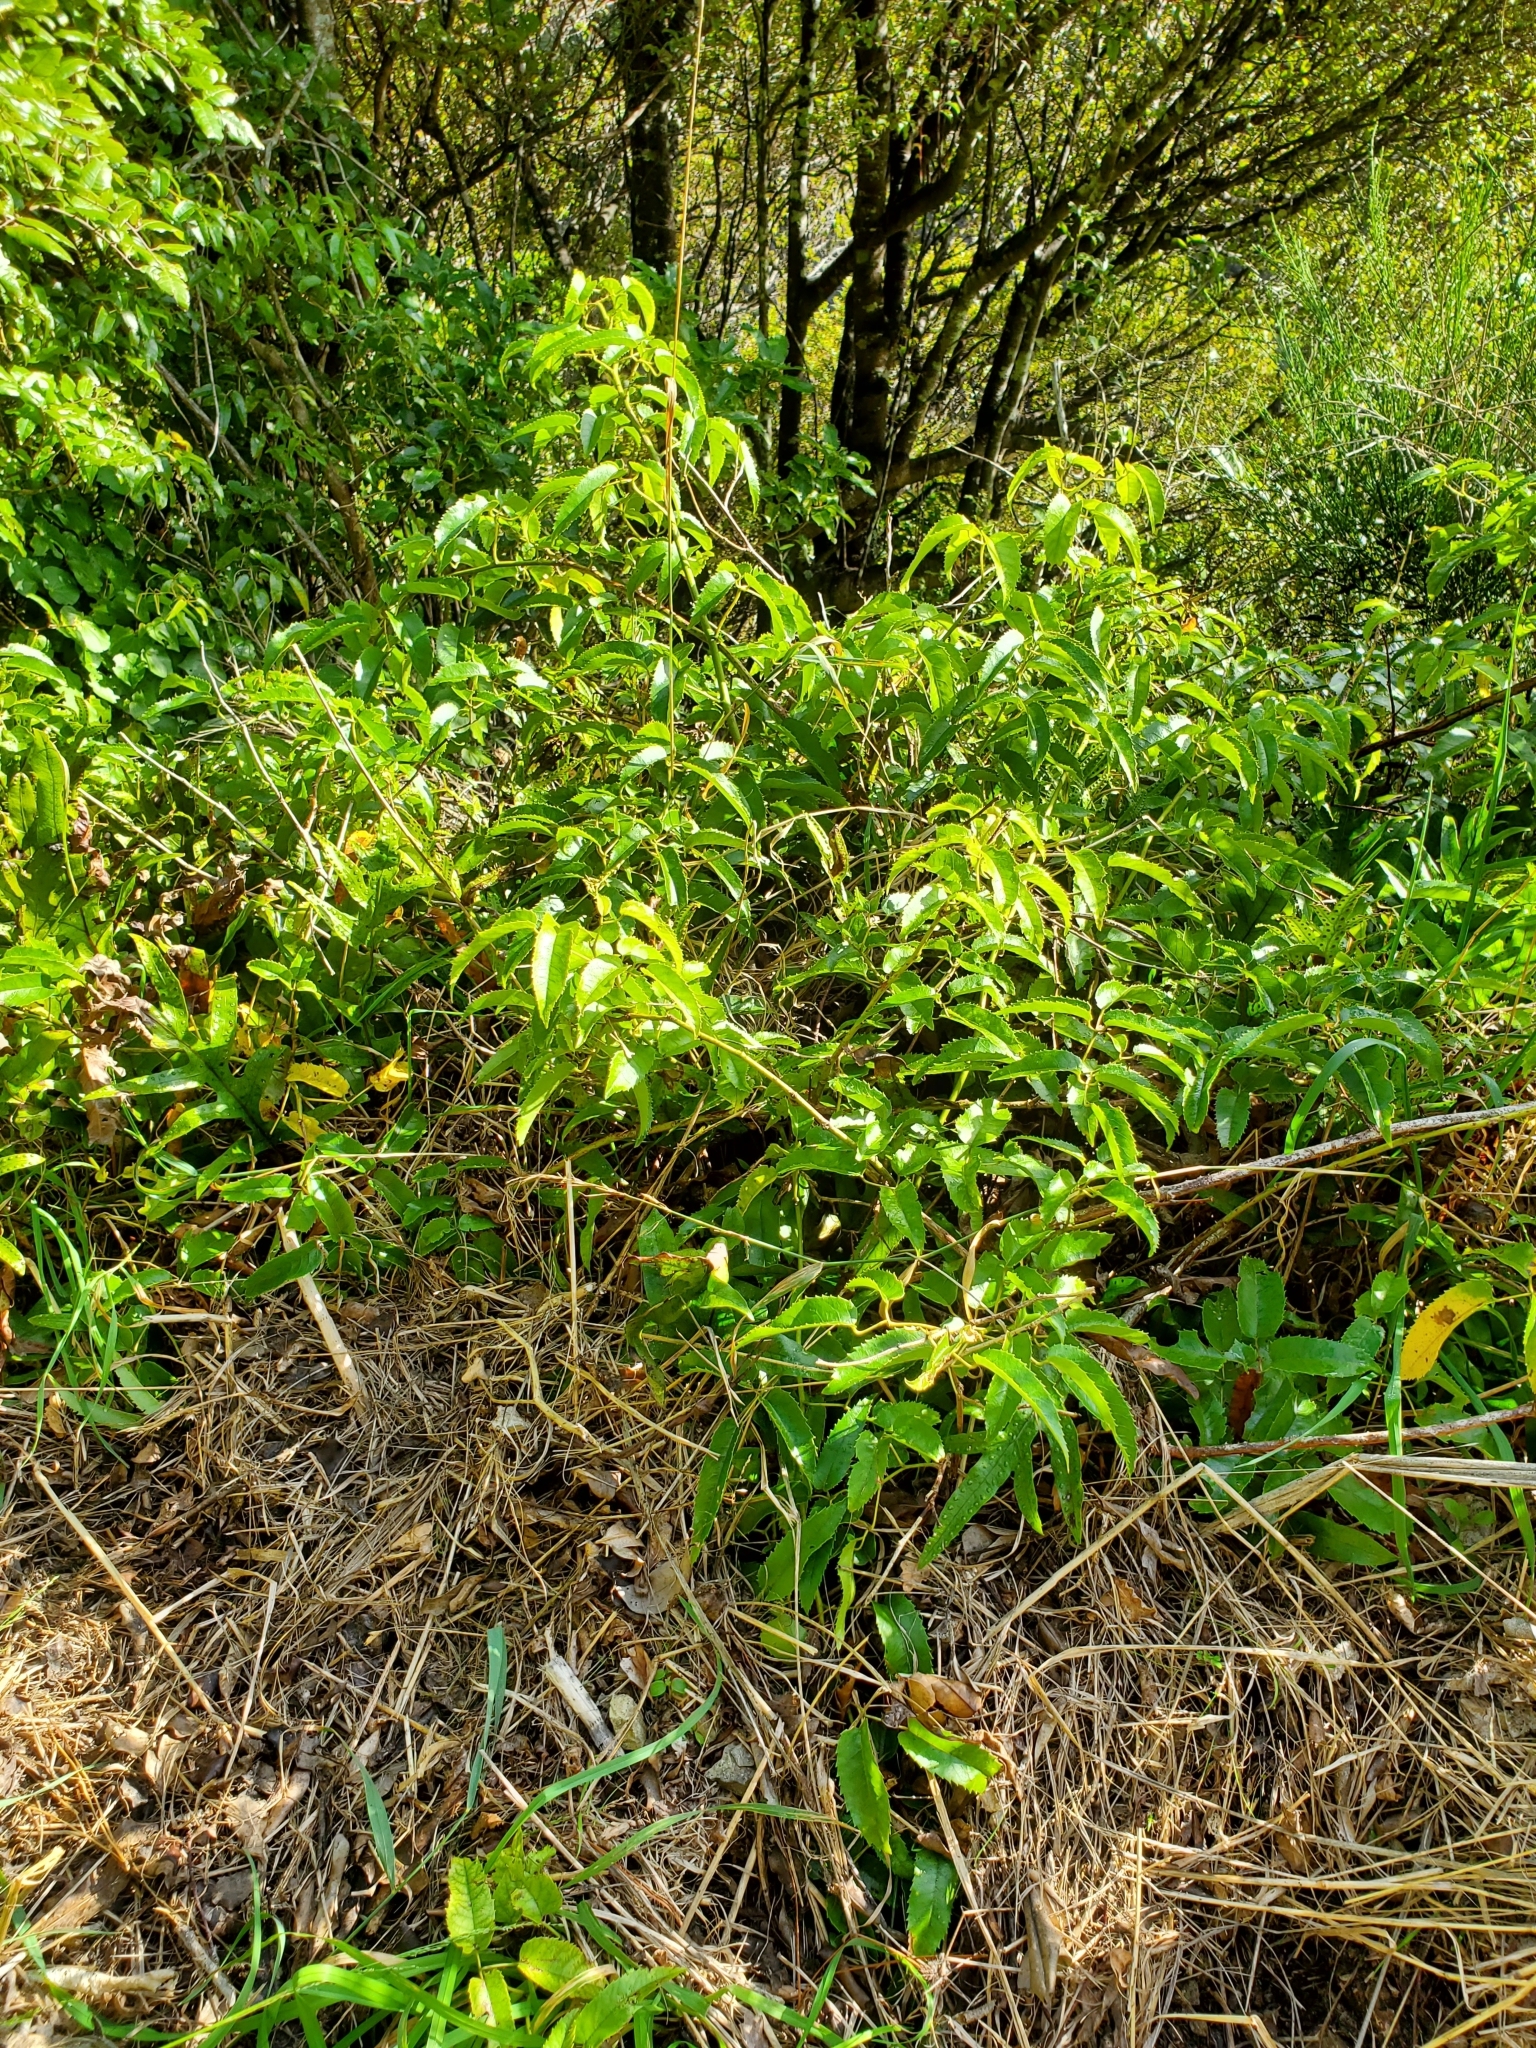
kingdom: Plantae
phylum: Tracheophyta
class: Magnoliopsida
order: Rosales
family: Rosaceae
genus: Rubus
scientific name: Rubus cissoides
